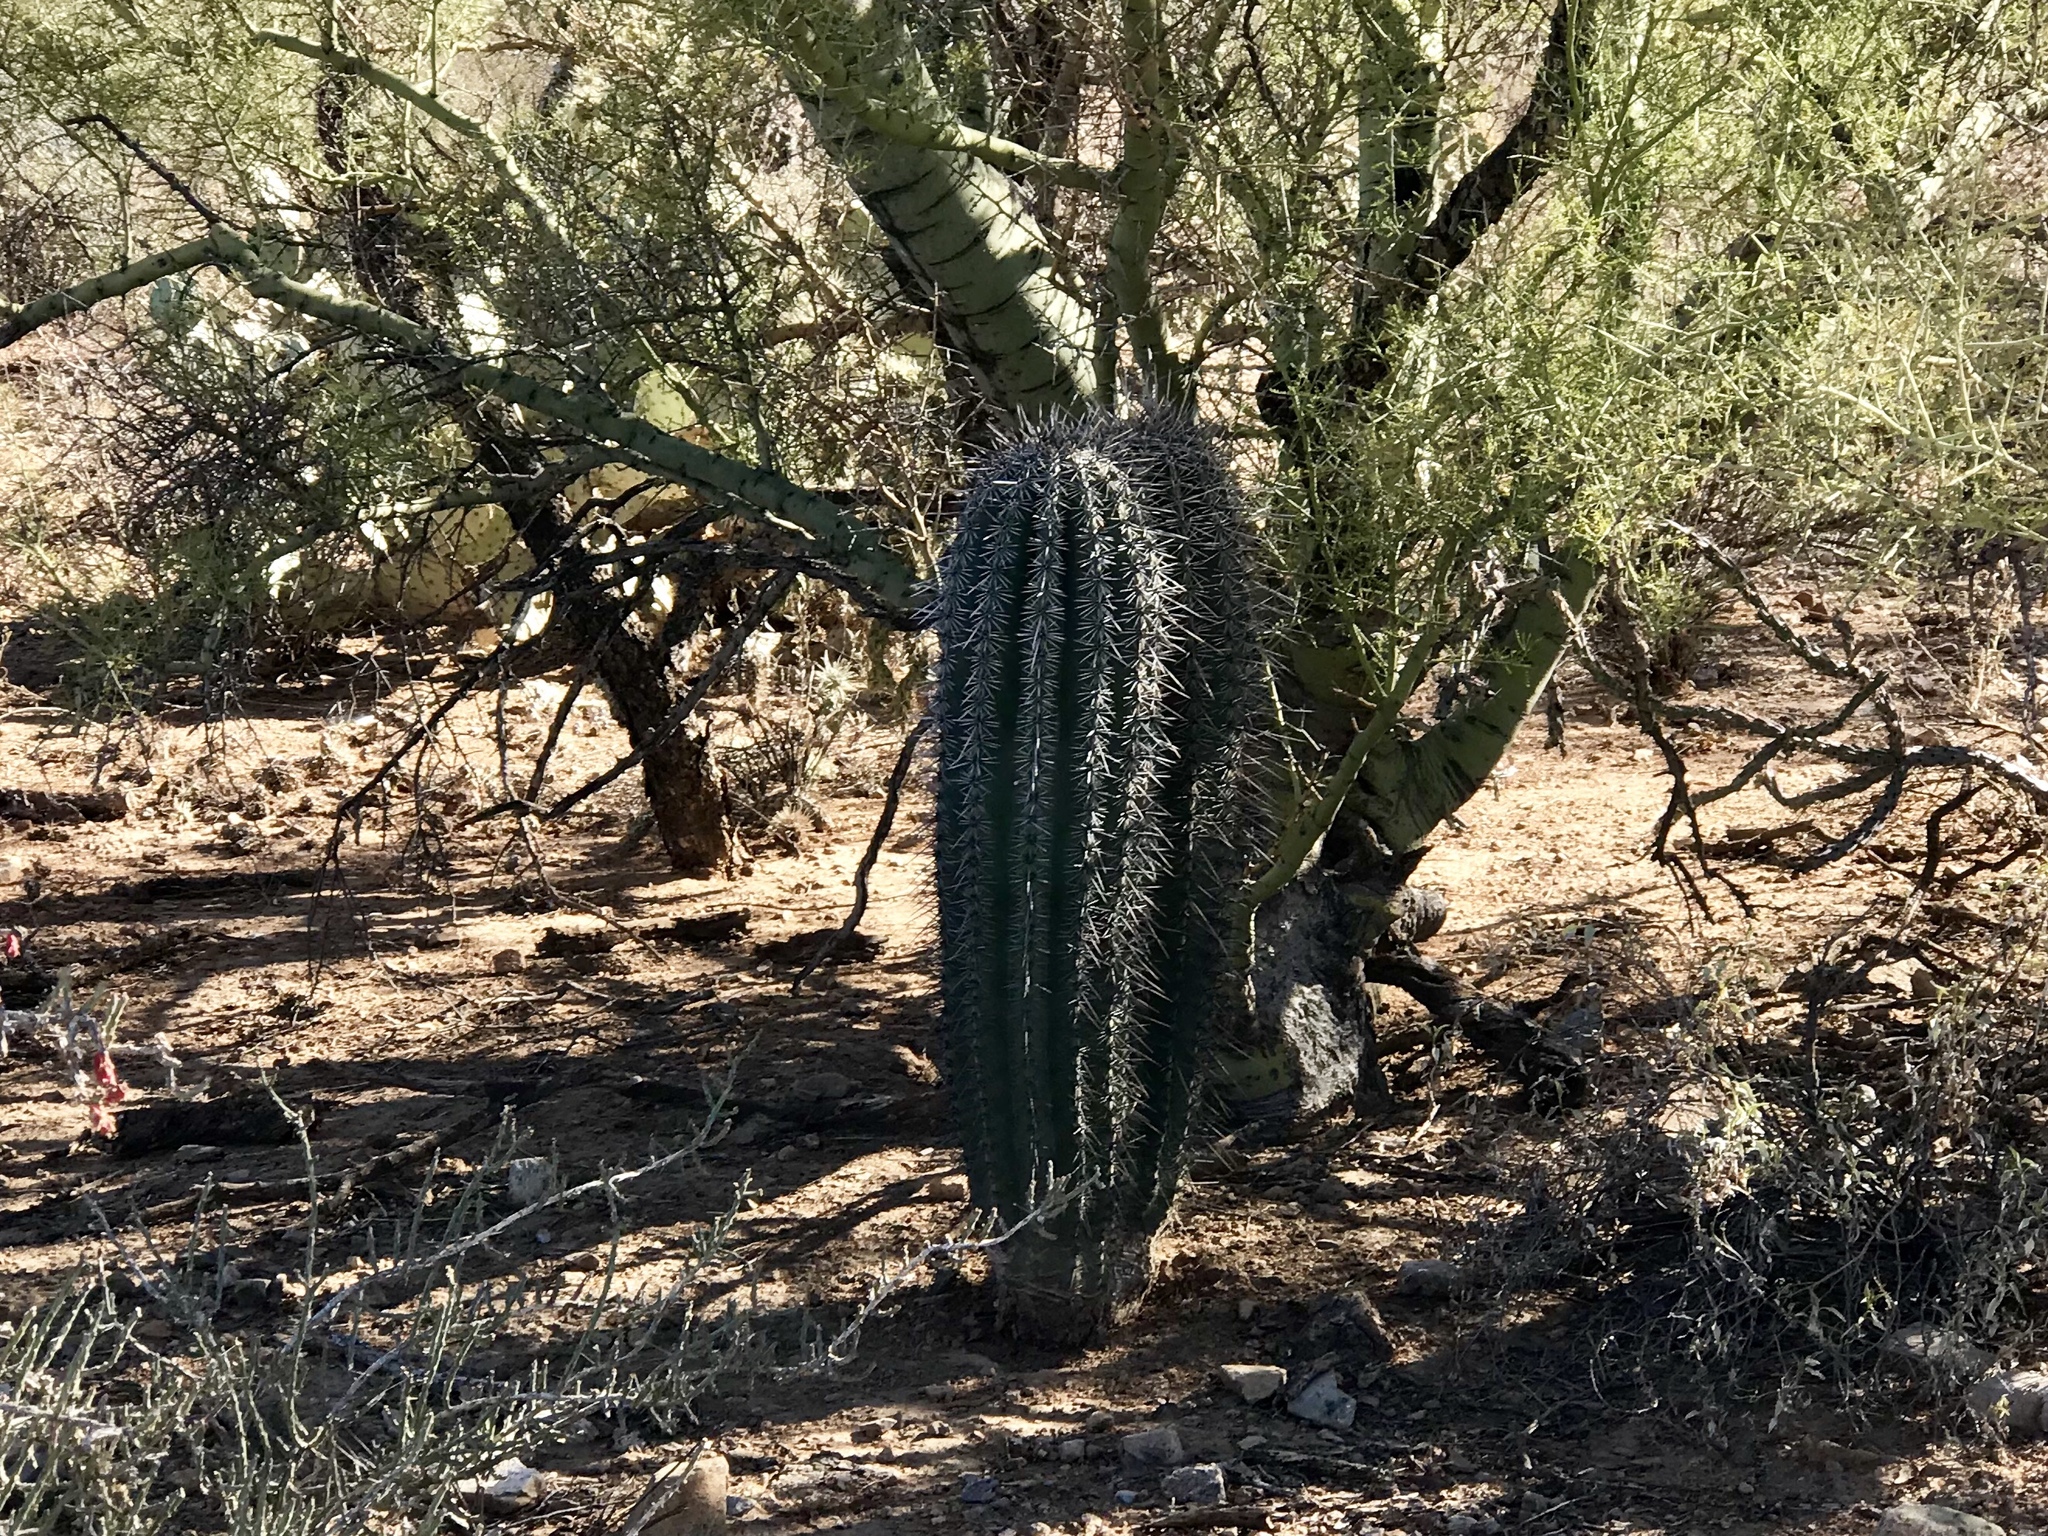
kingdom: Plantae
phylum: Tracheophyta
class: Magnoliopsida
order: Caryophyllales
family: Cactaceae
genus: Carnegiea
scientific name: Carnegiea gigantea
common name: Saguaro
